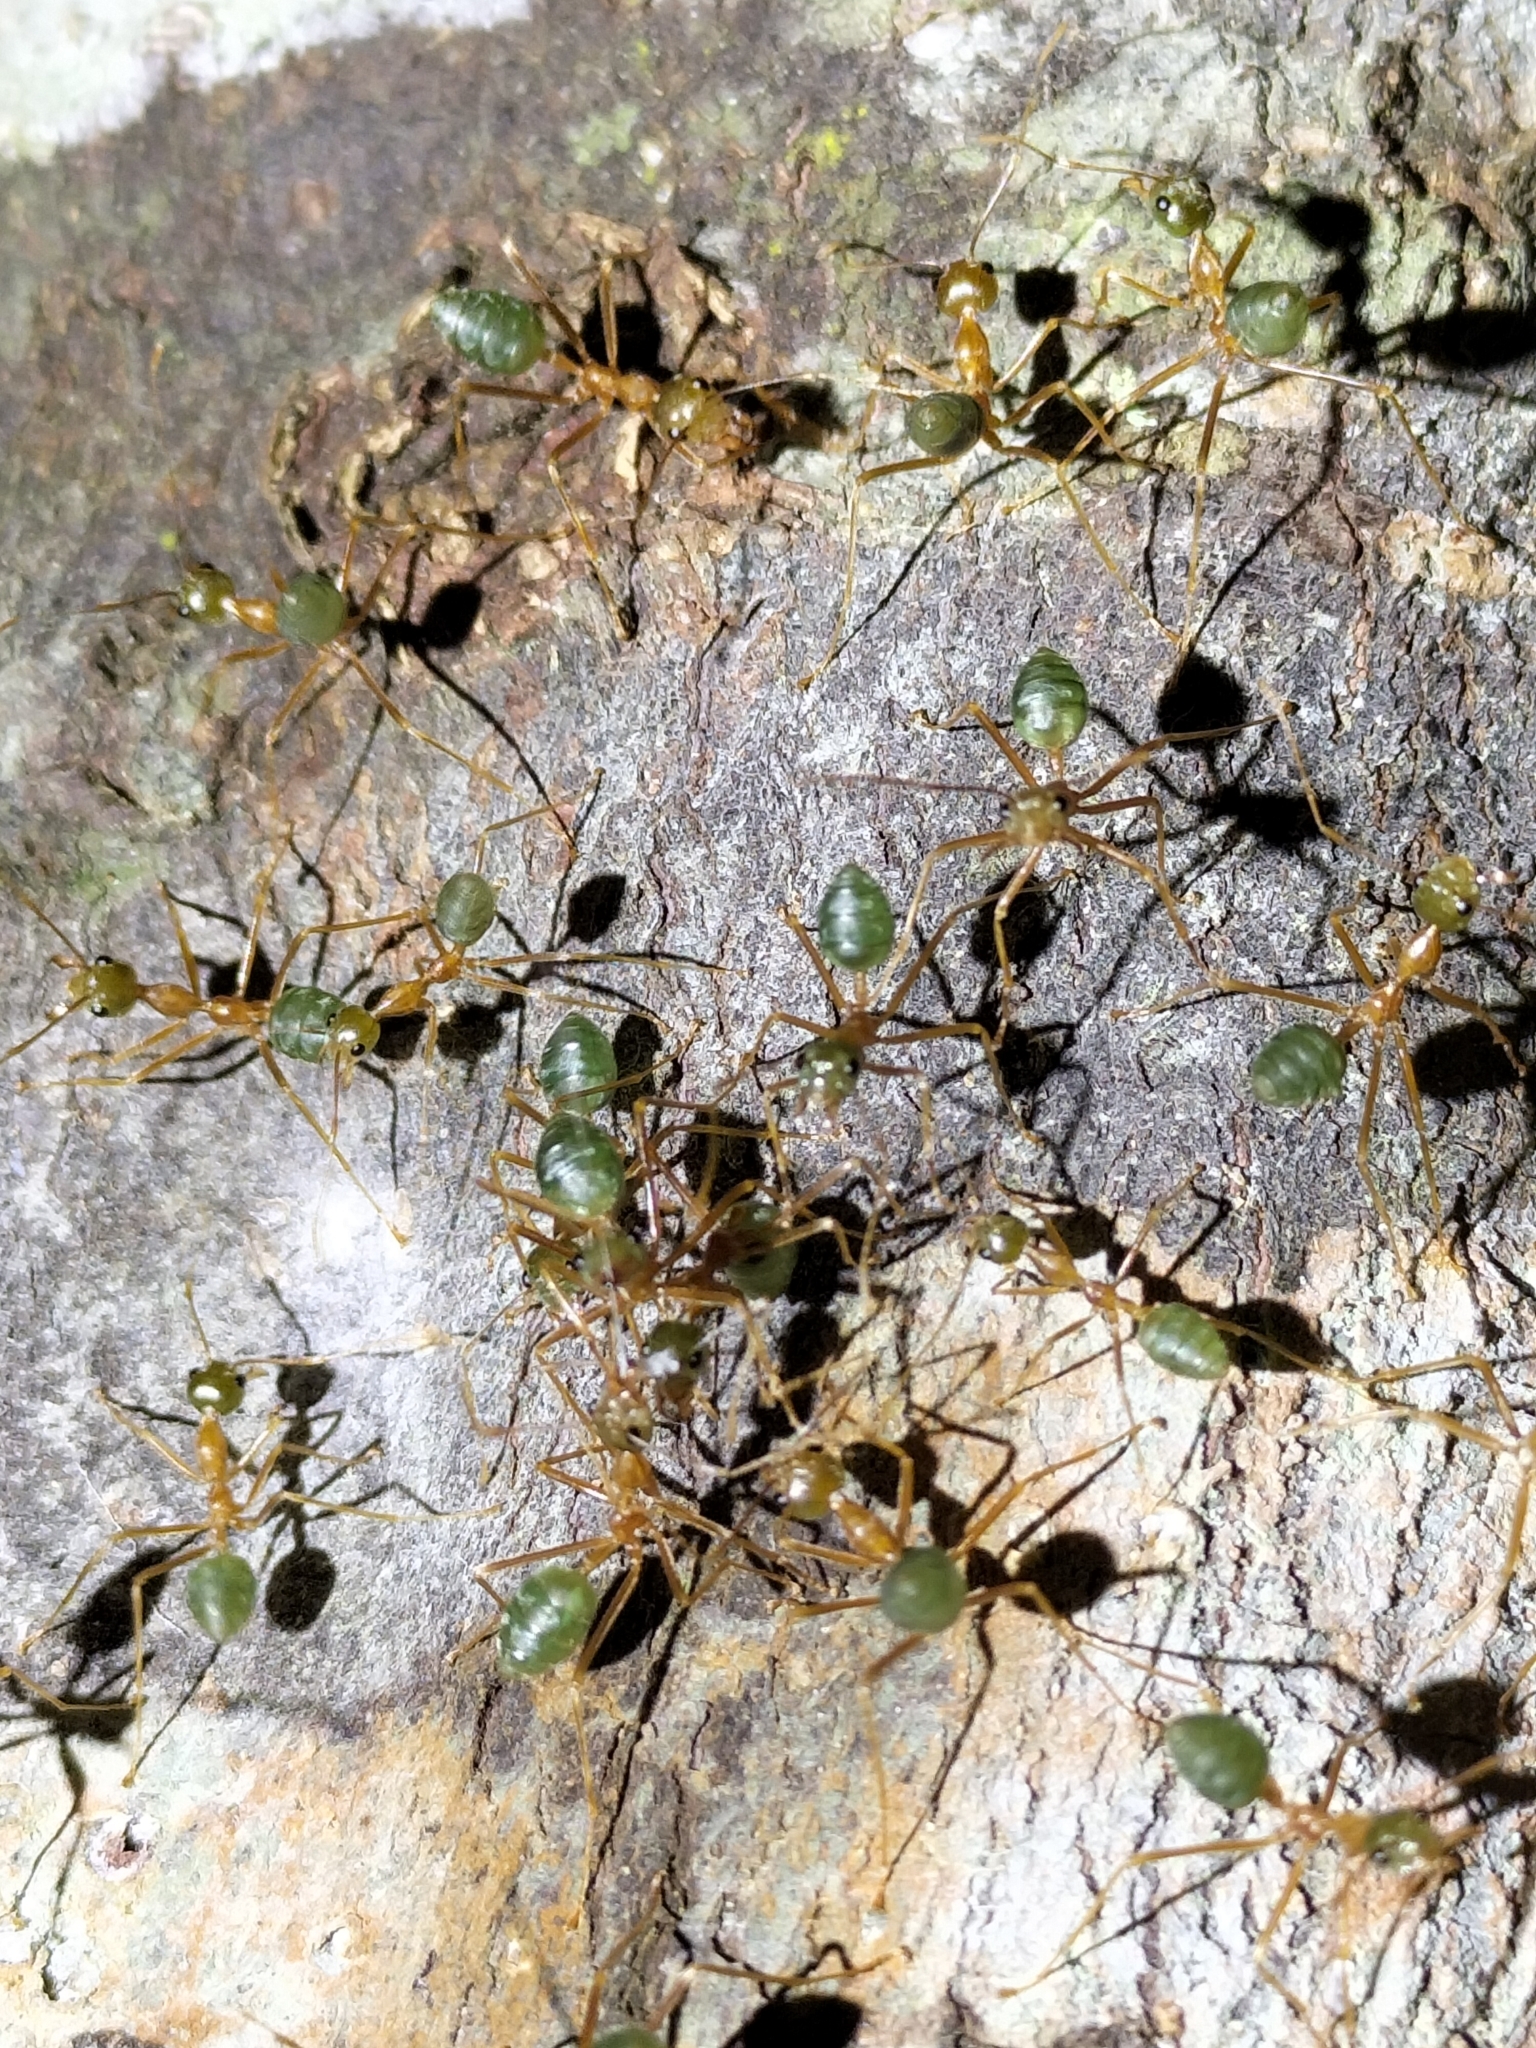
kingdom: Animalia
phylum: Arthropoda
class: Insecta
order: Hymenoptera
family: Formicidae
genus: Oecophylla
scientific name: Oecophylla smaragdina
